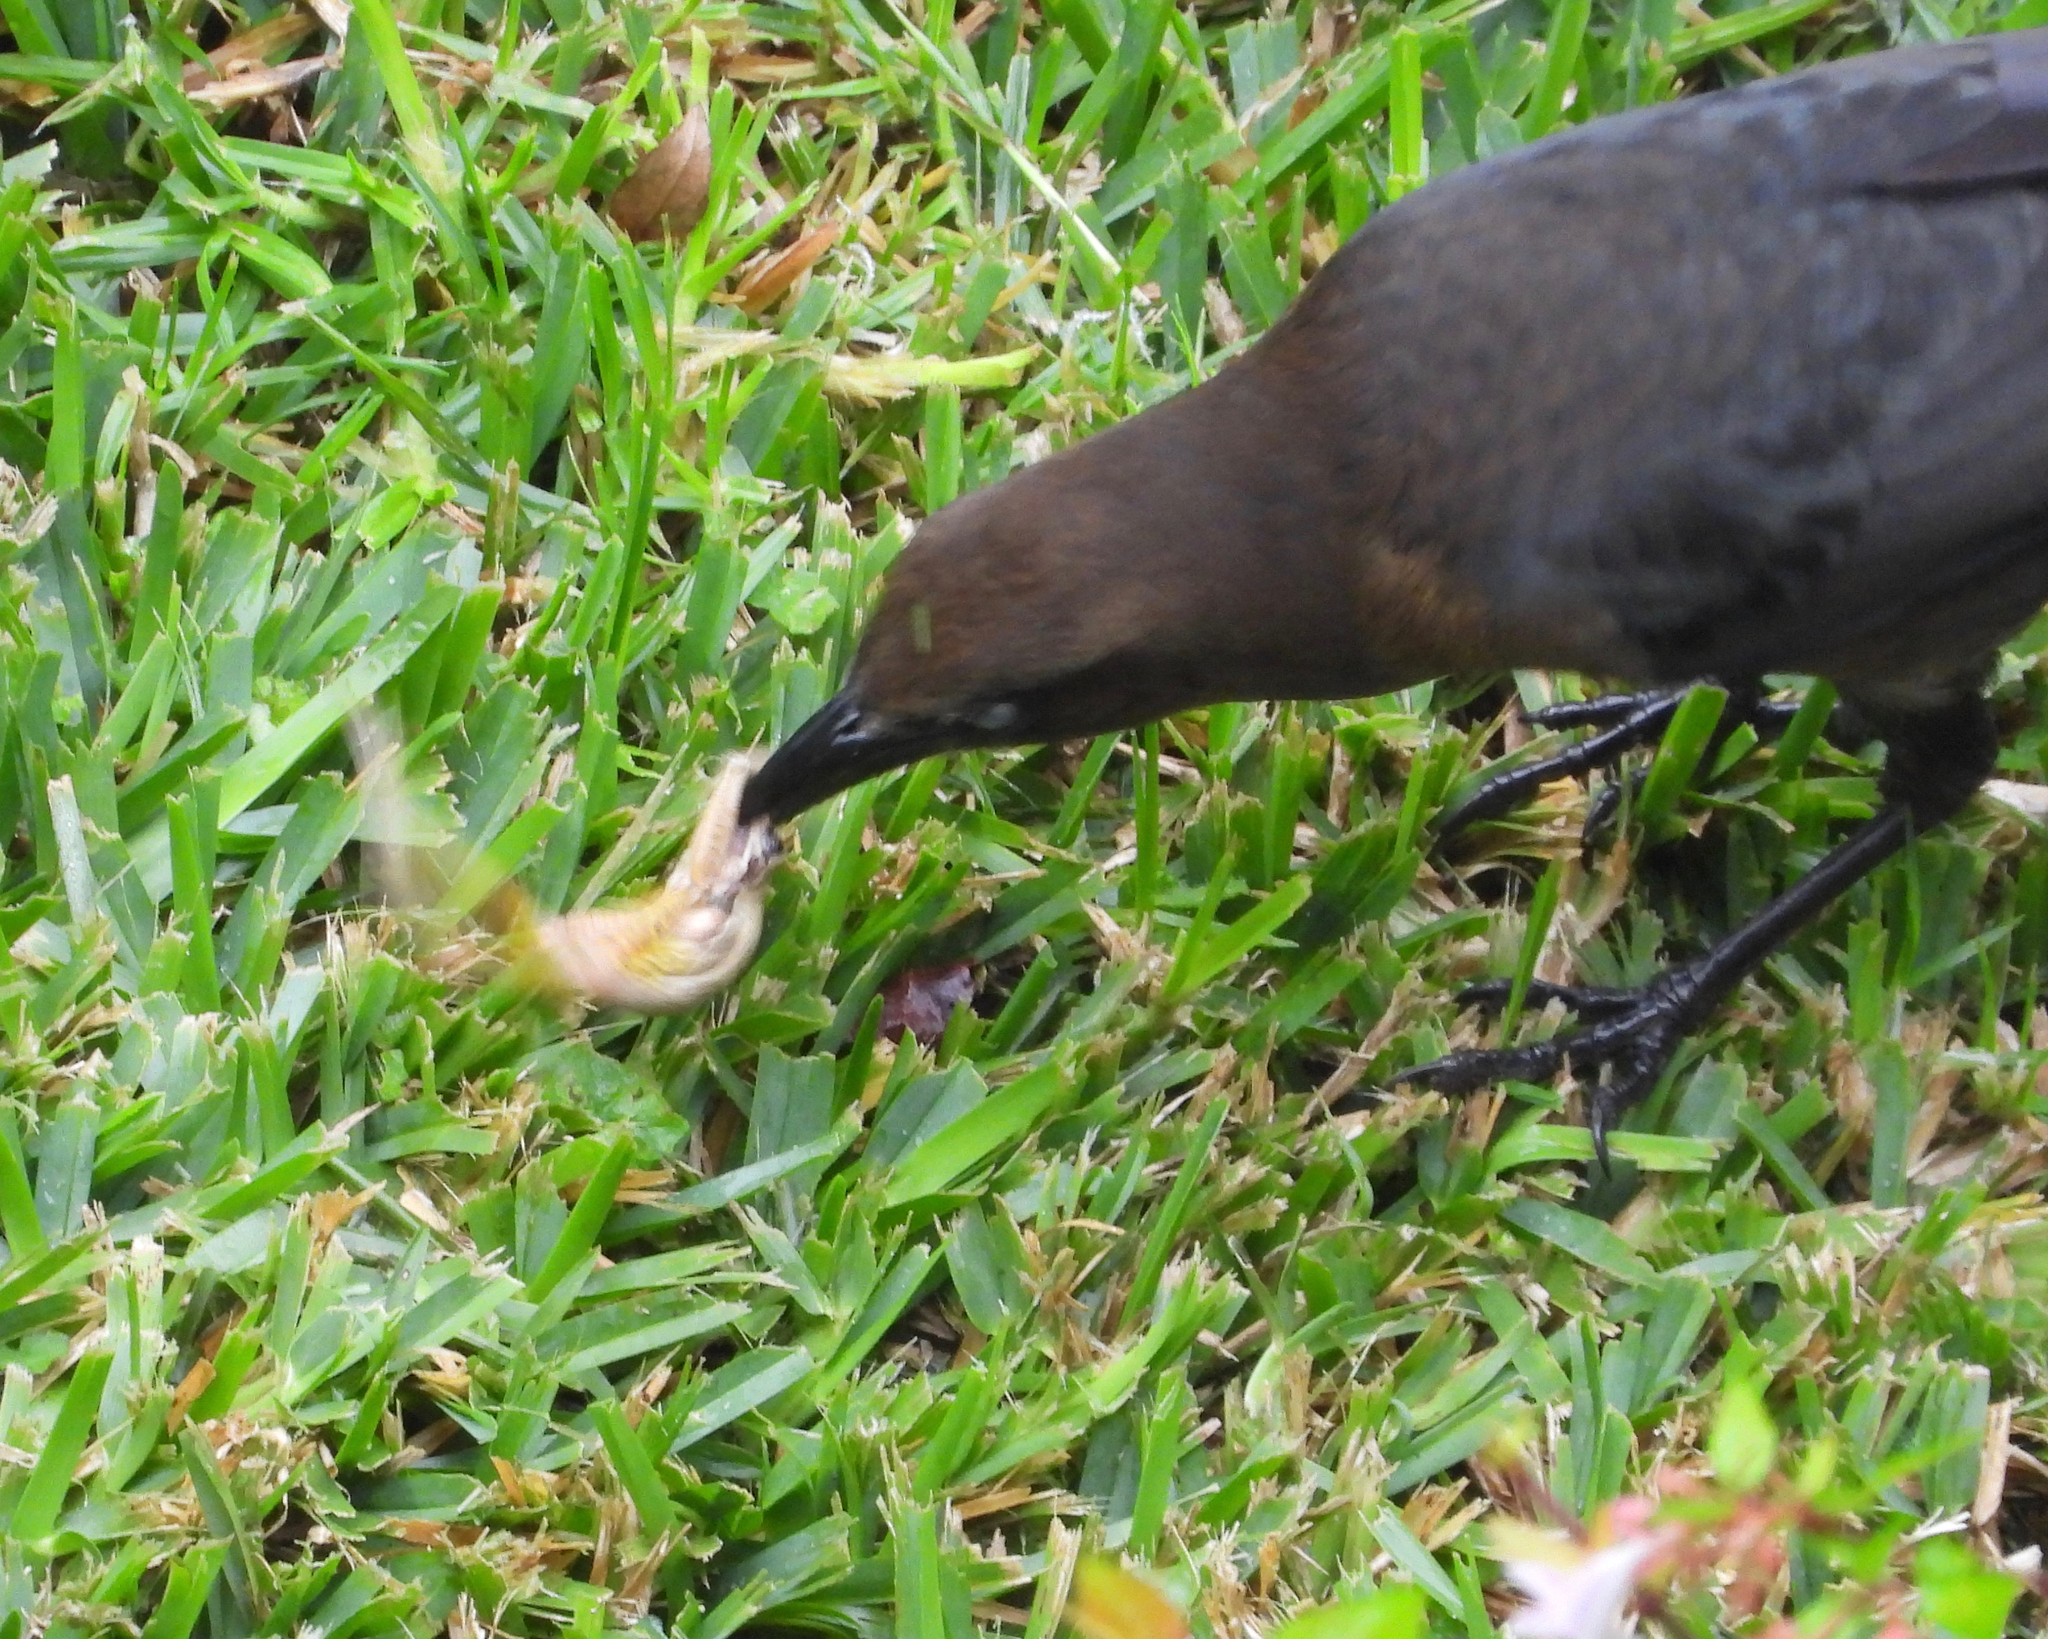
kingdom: Animalia
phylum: Chordata
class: Aves
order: Passeriformes
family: Icteridae
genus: Quiscalus
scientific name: Quiscalus mexicanus
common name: Great-tailed grackle
